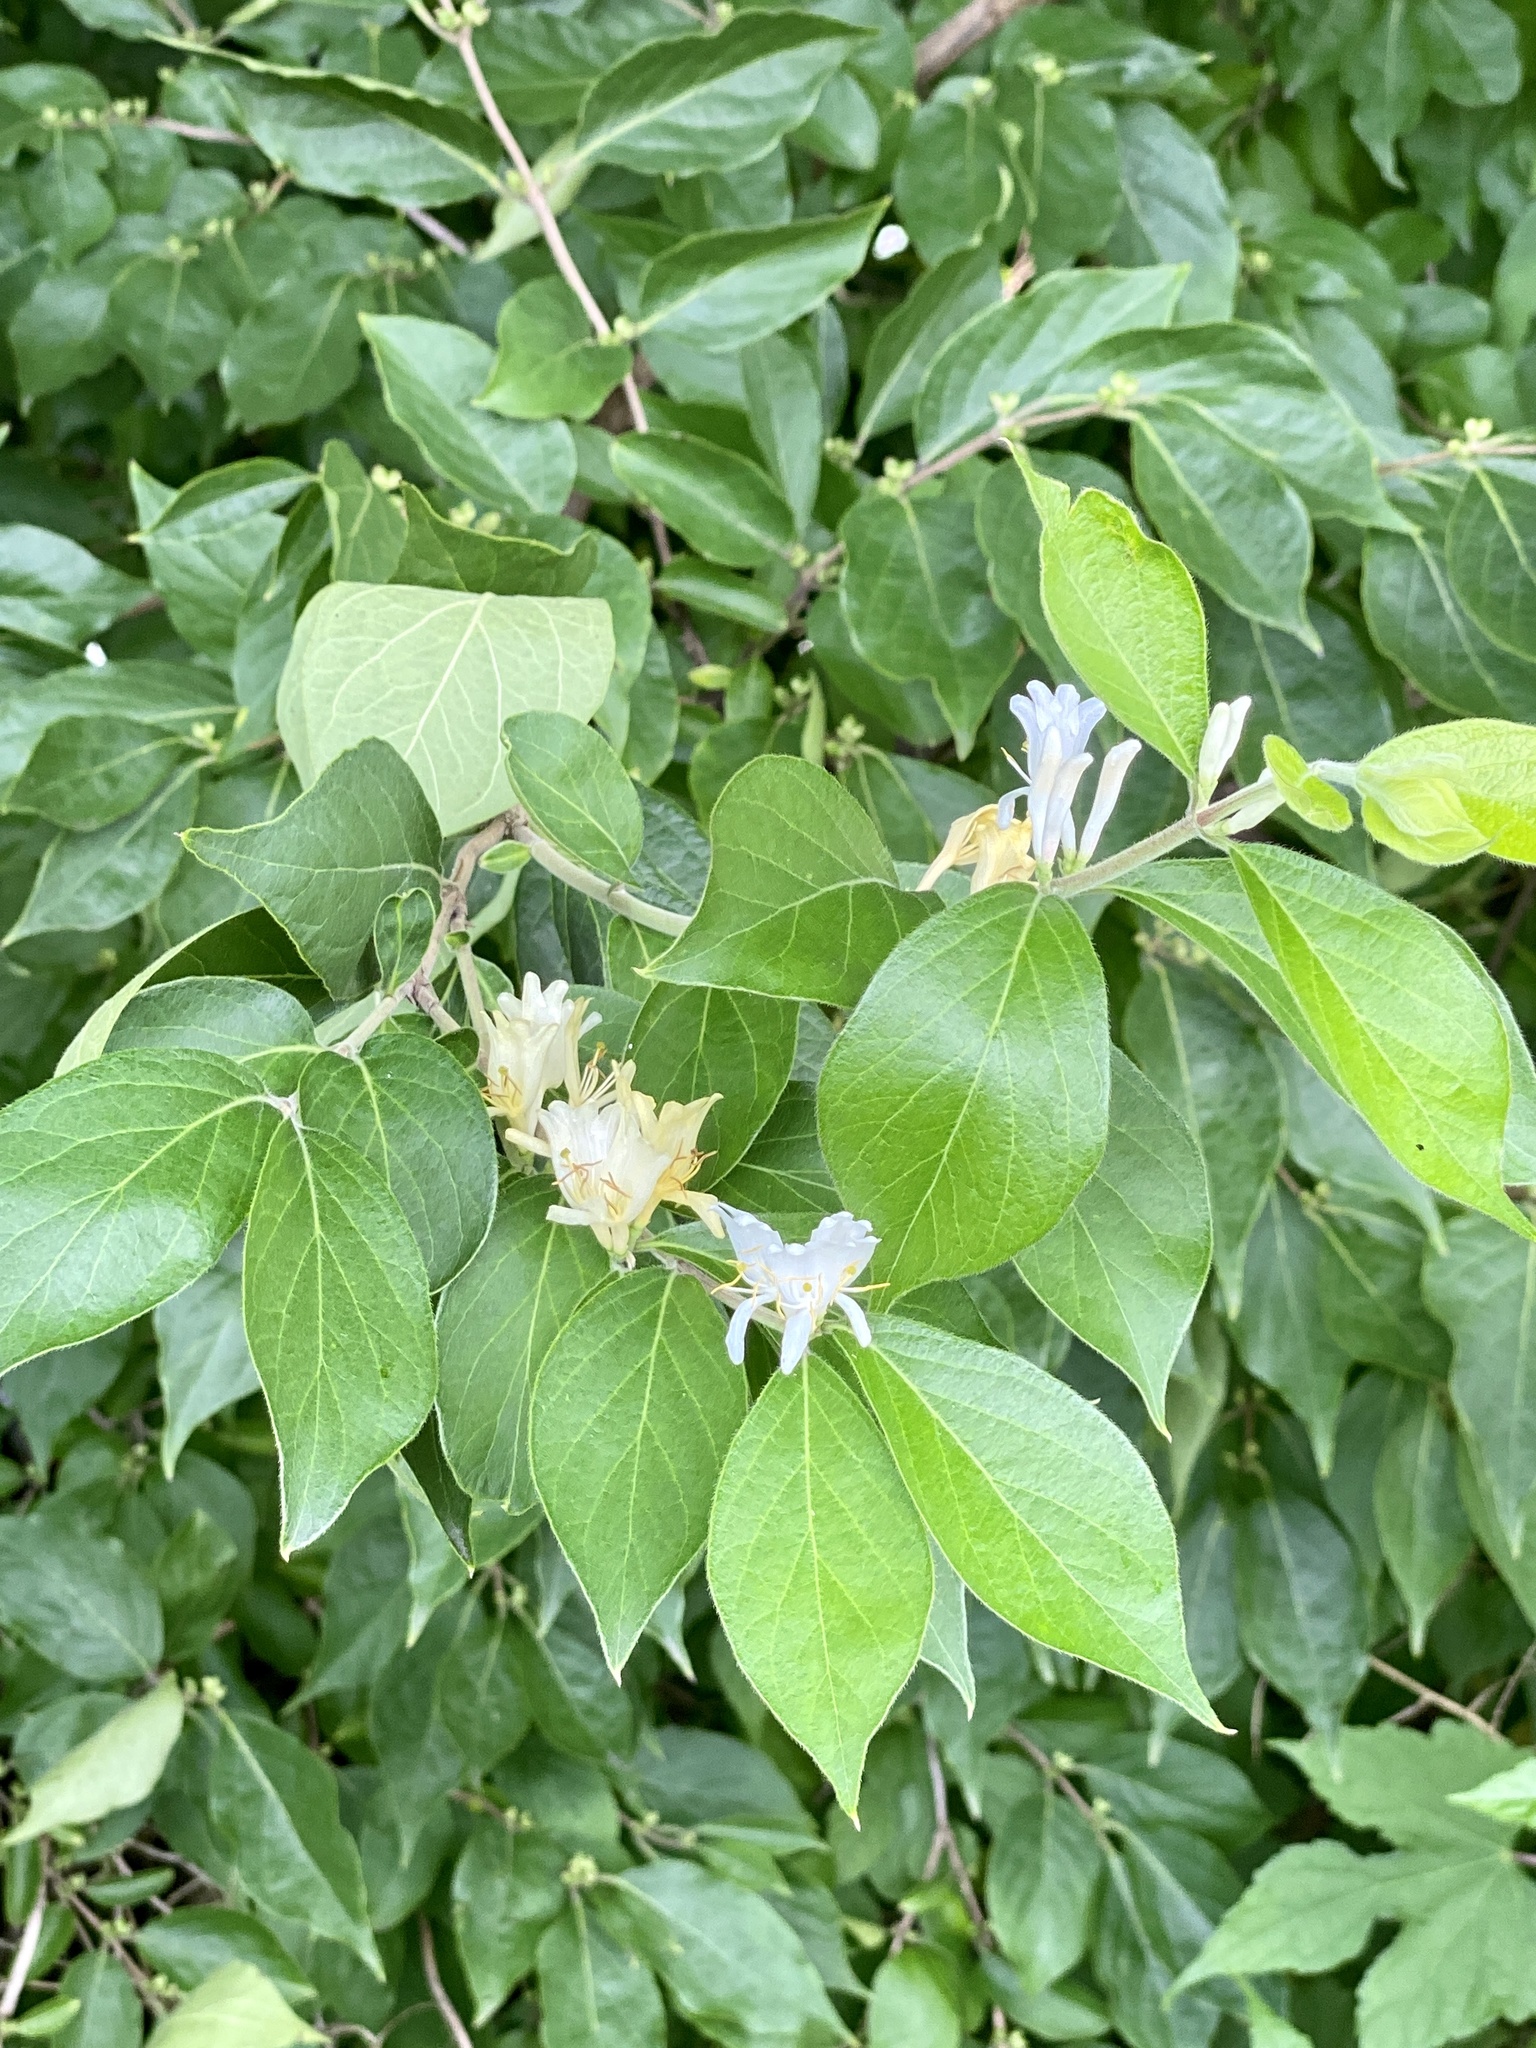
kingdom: Plantae
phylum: Tracheophyta
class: Magnoliopsida
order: Dipsacales
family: Caprifoliaceae
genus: Lonicera
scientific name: Lonicera maackii
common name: Amur honeysuckle
